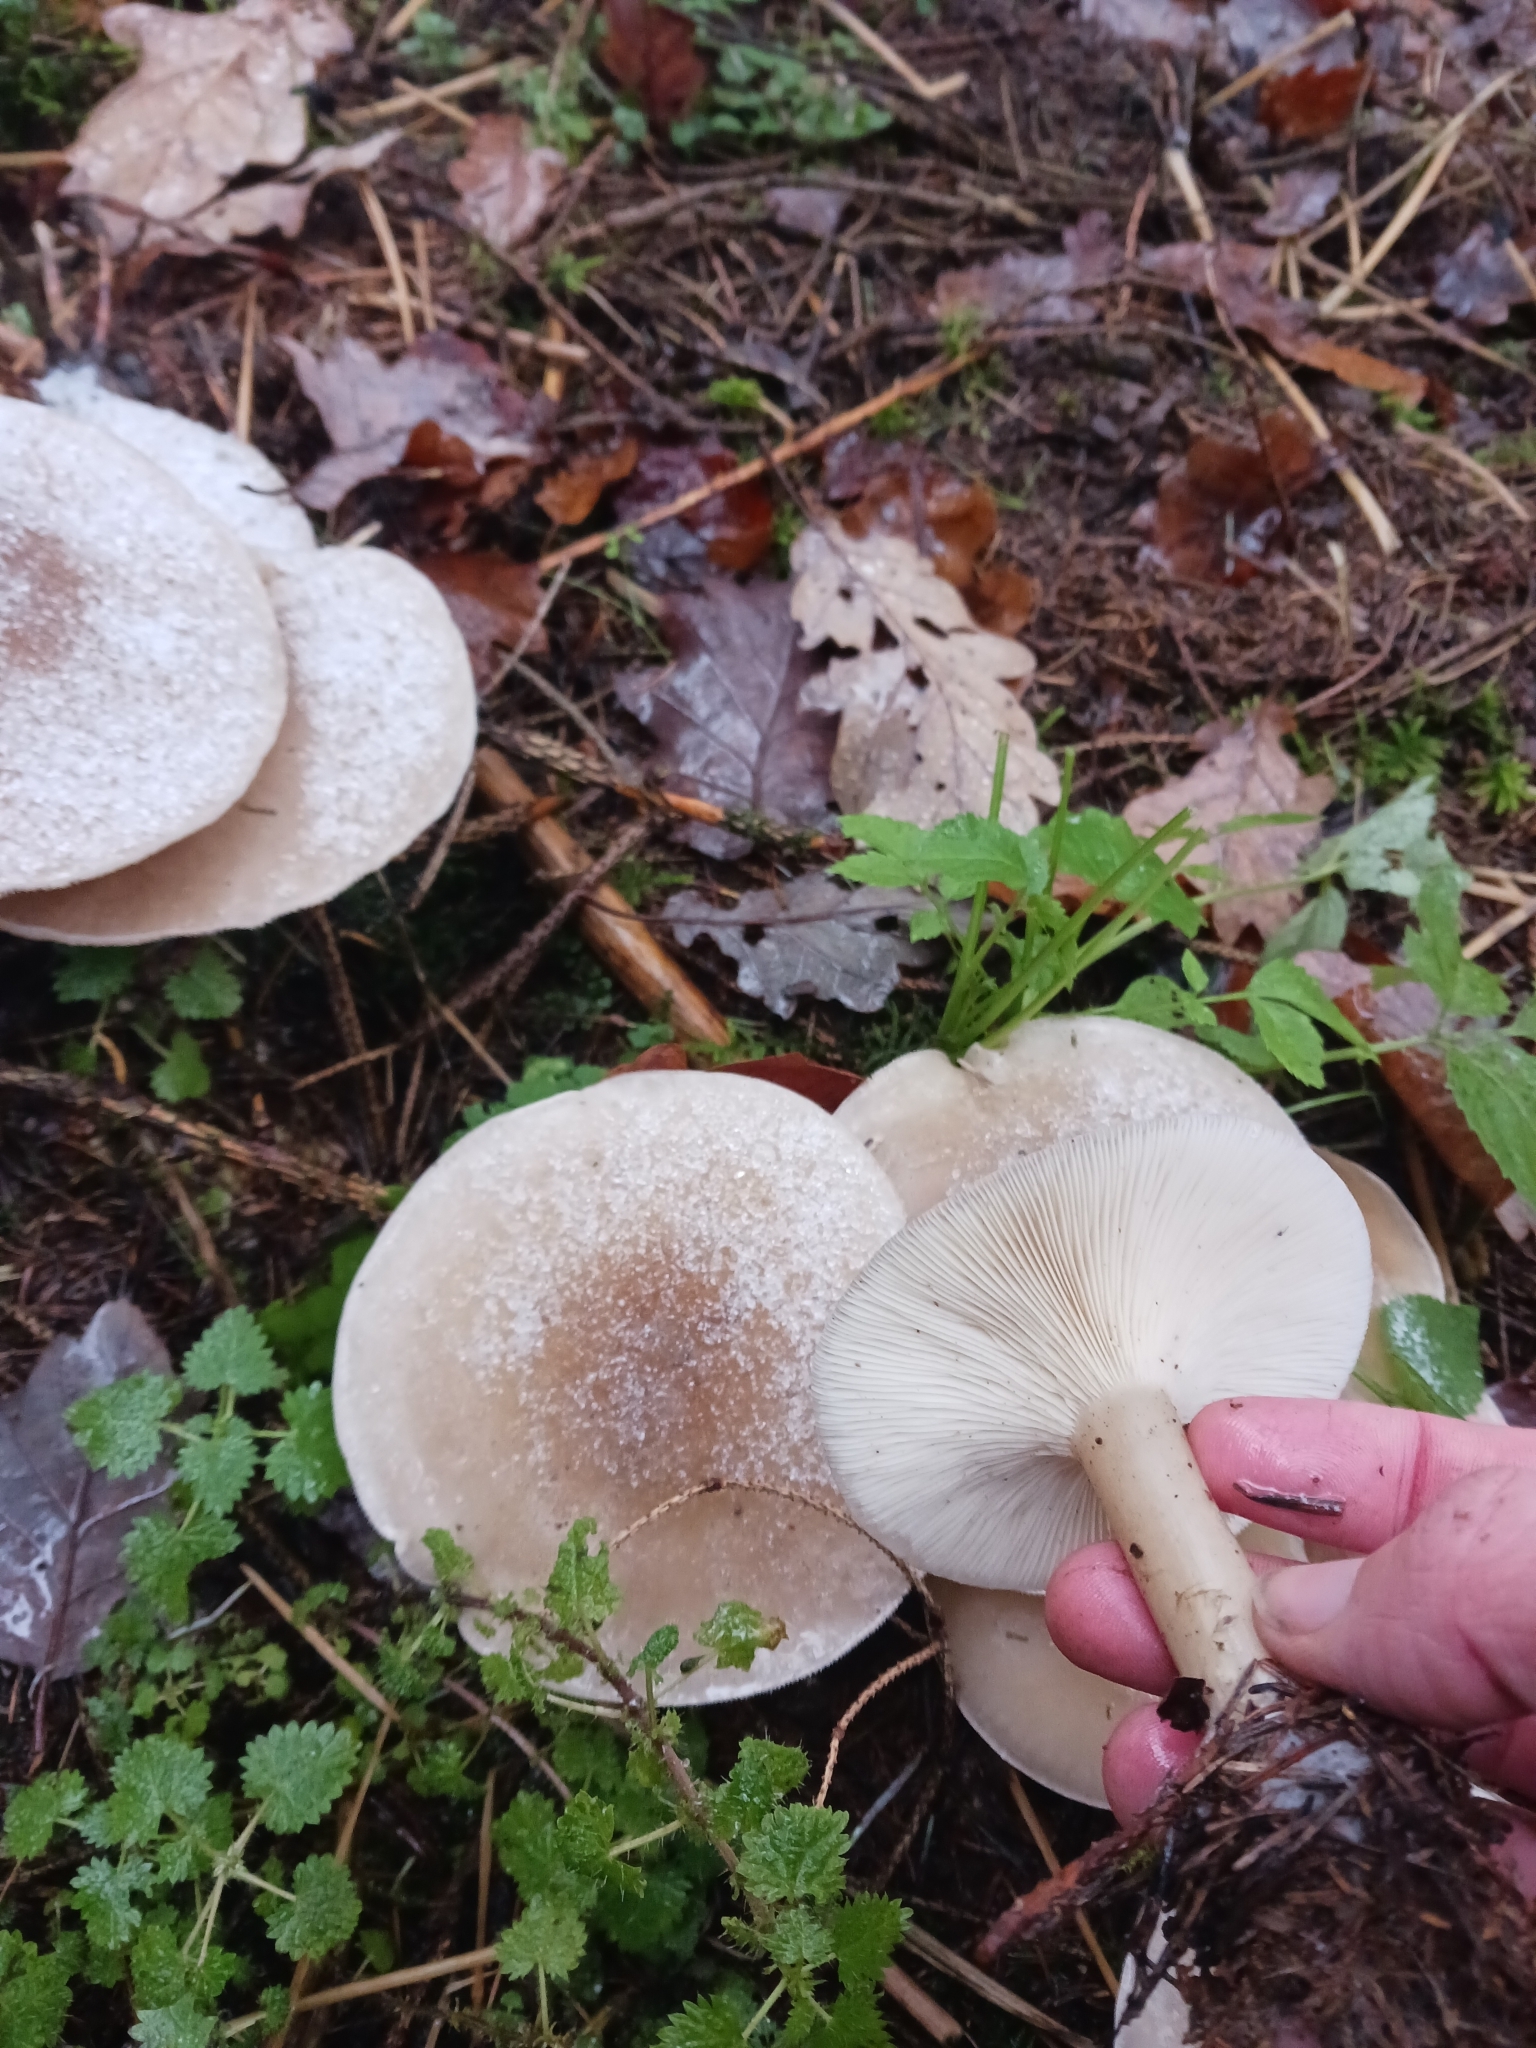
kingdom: Fungi
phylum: Basidiomycota
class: Agaricomycetes
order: Agaricales
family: Tricholomataceae
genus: Clitocybe
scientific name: Clitocybe nebularis
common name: Clouded agaric
